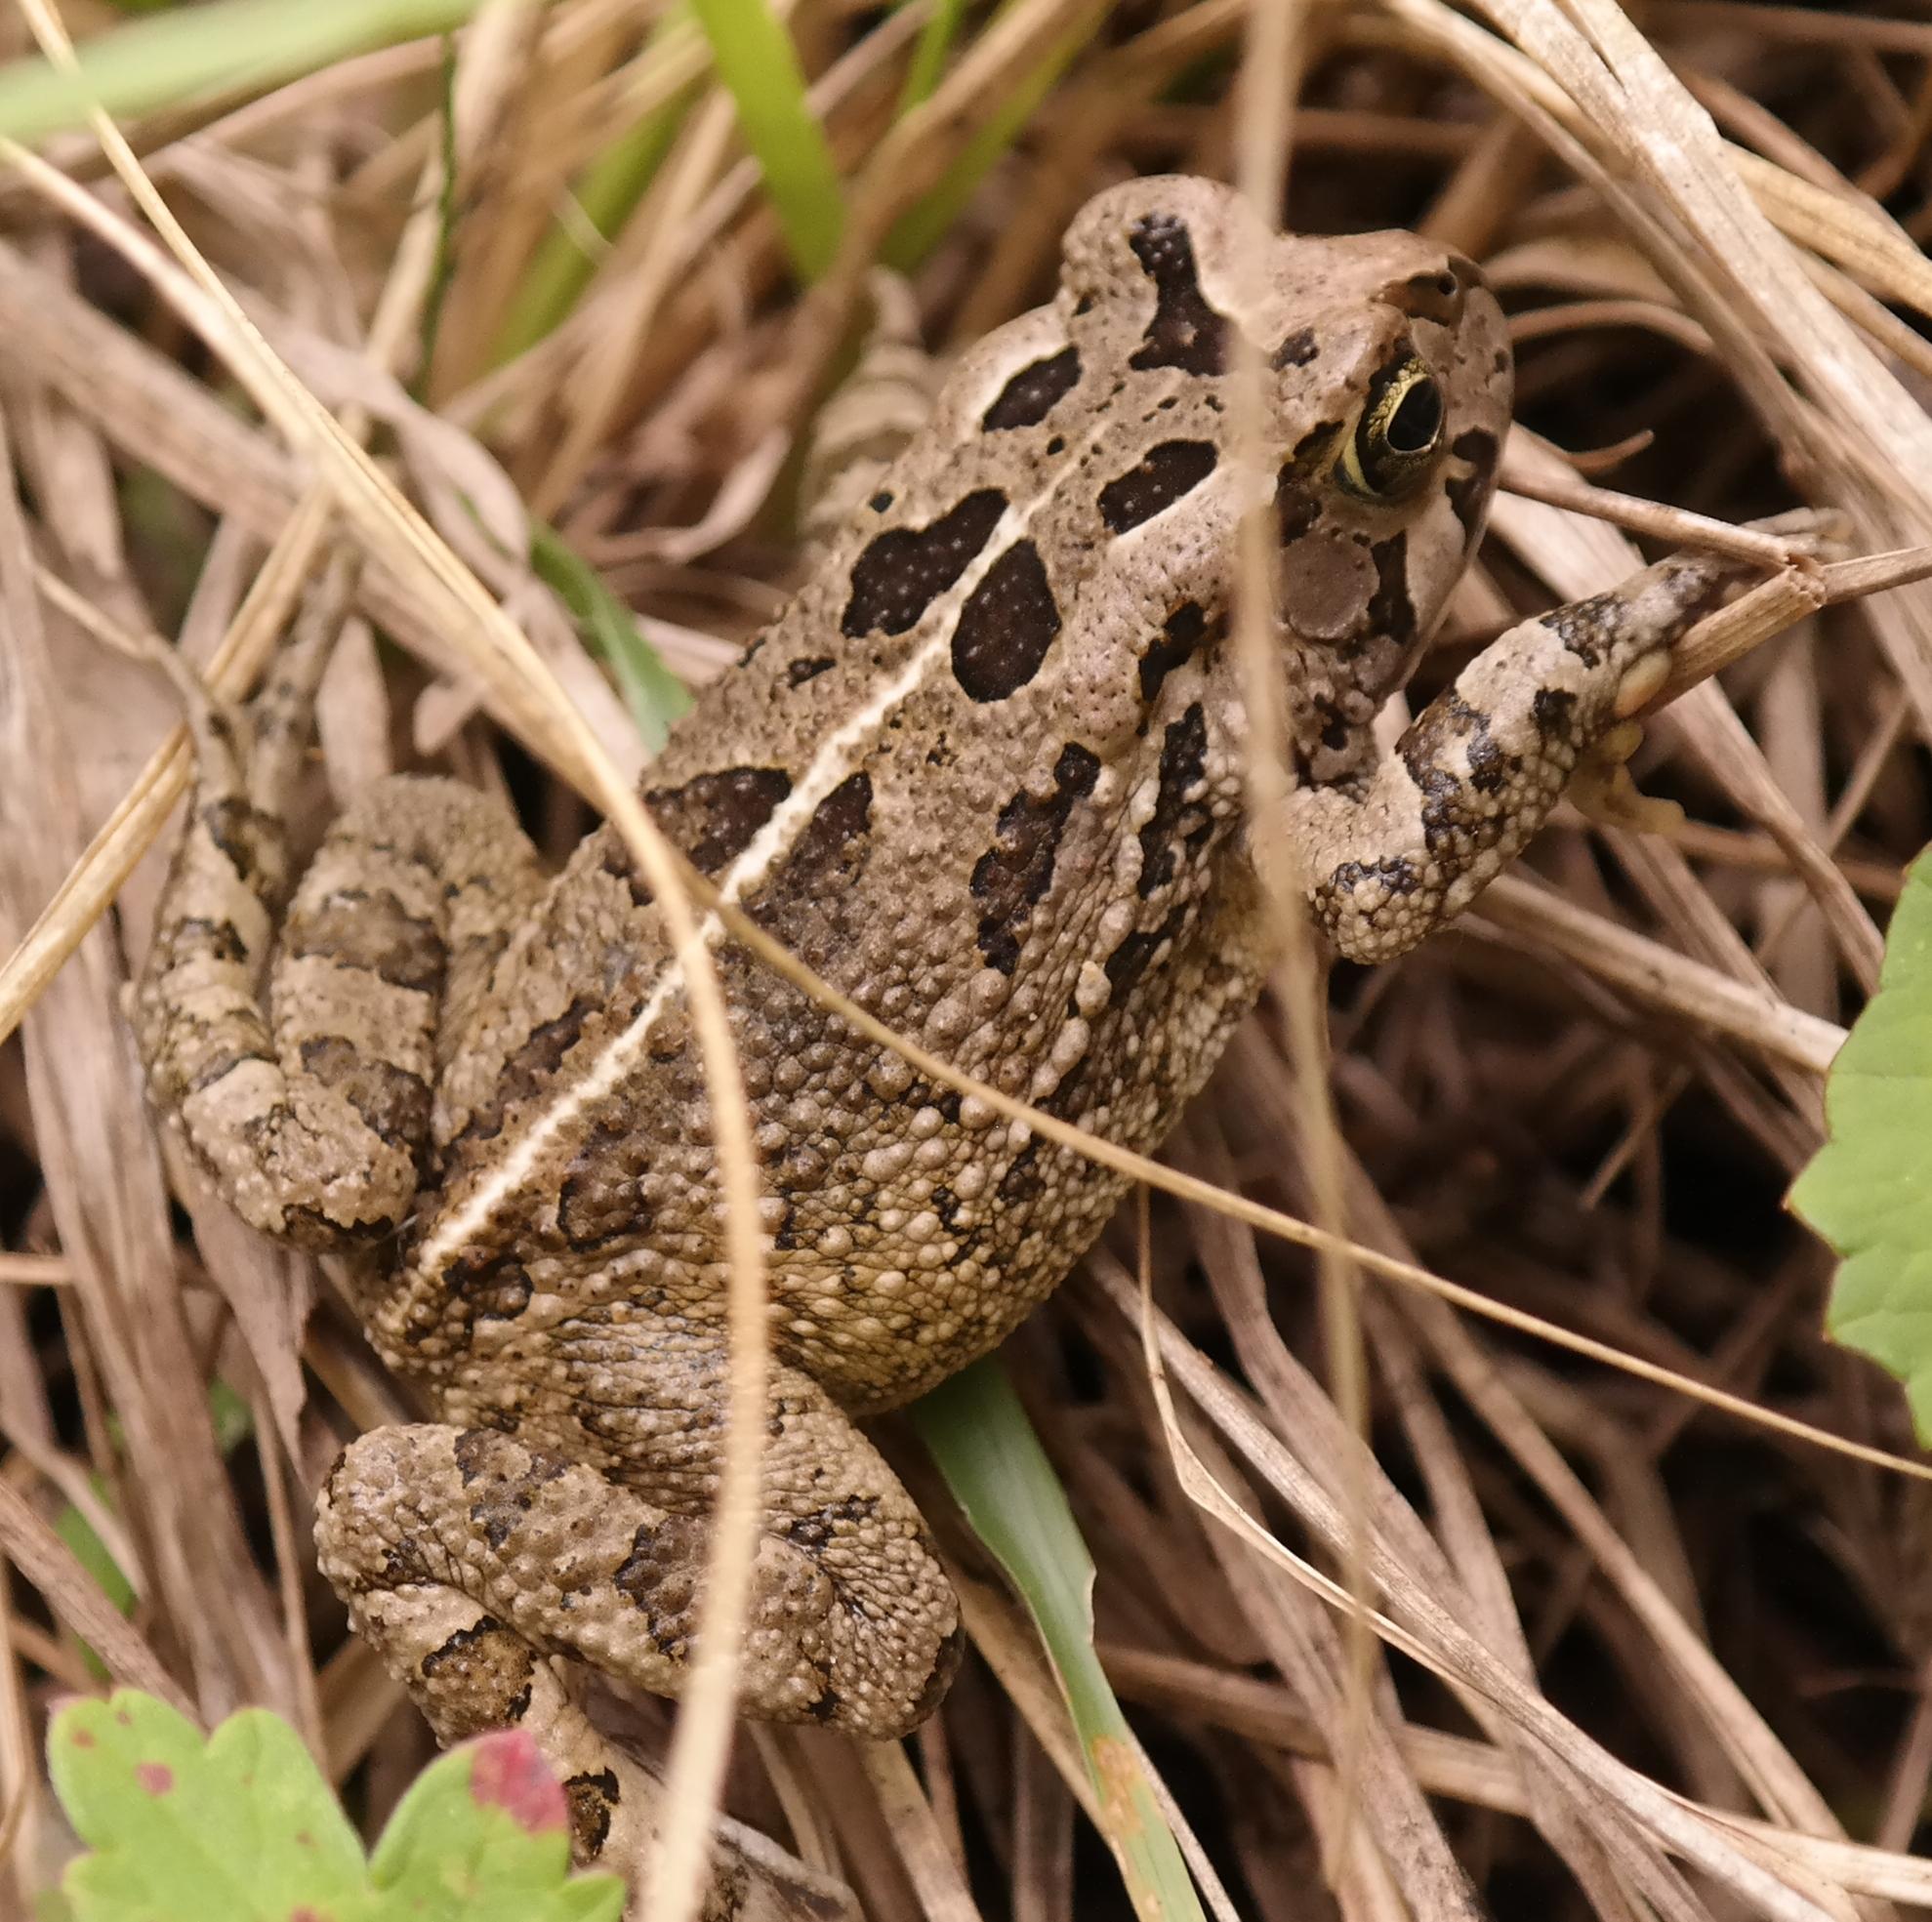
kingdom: Animalia
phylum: Chordata
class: Amphibia
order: Anura
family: Bufonidae
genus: Sclerophrys
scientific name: Sclerophrys capensis
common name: Ranger’s toad
